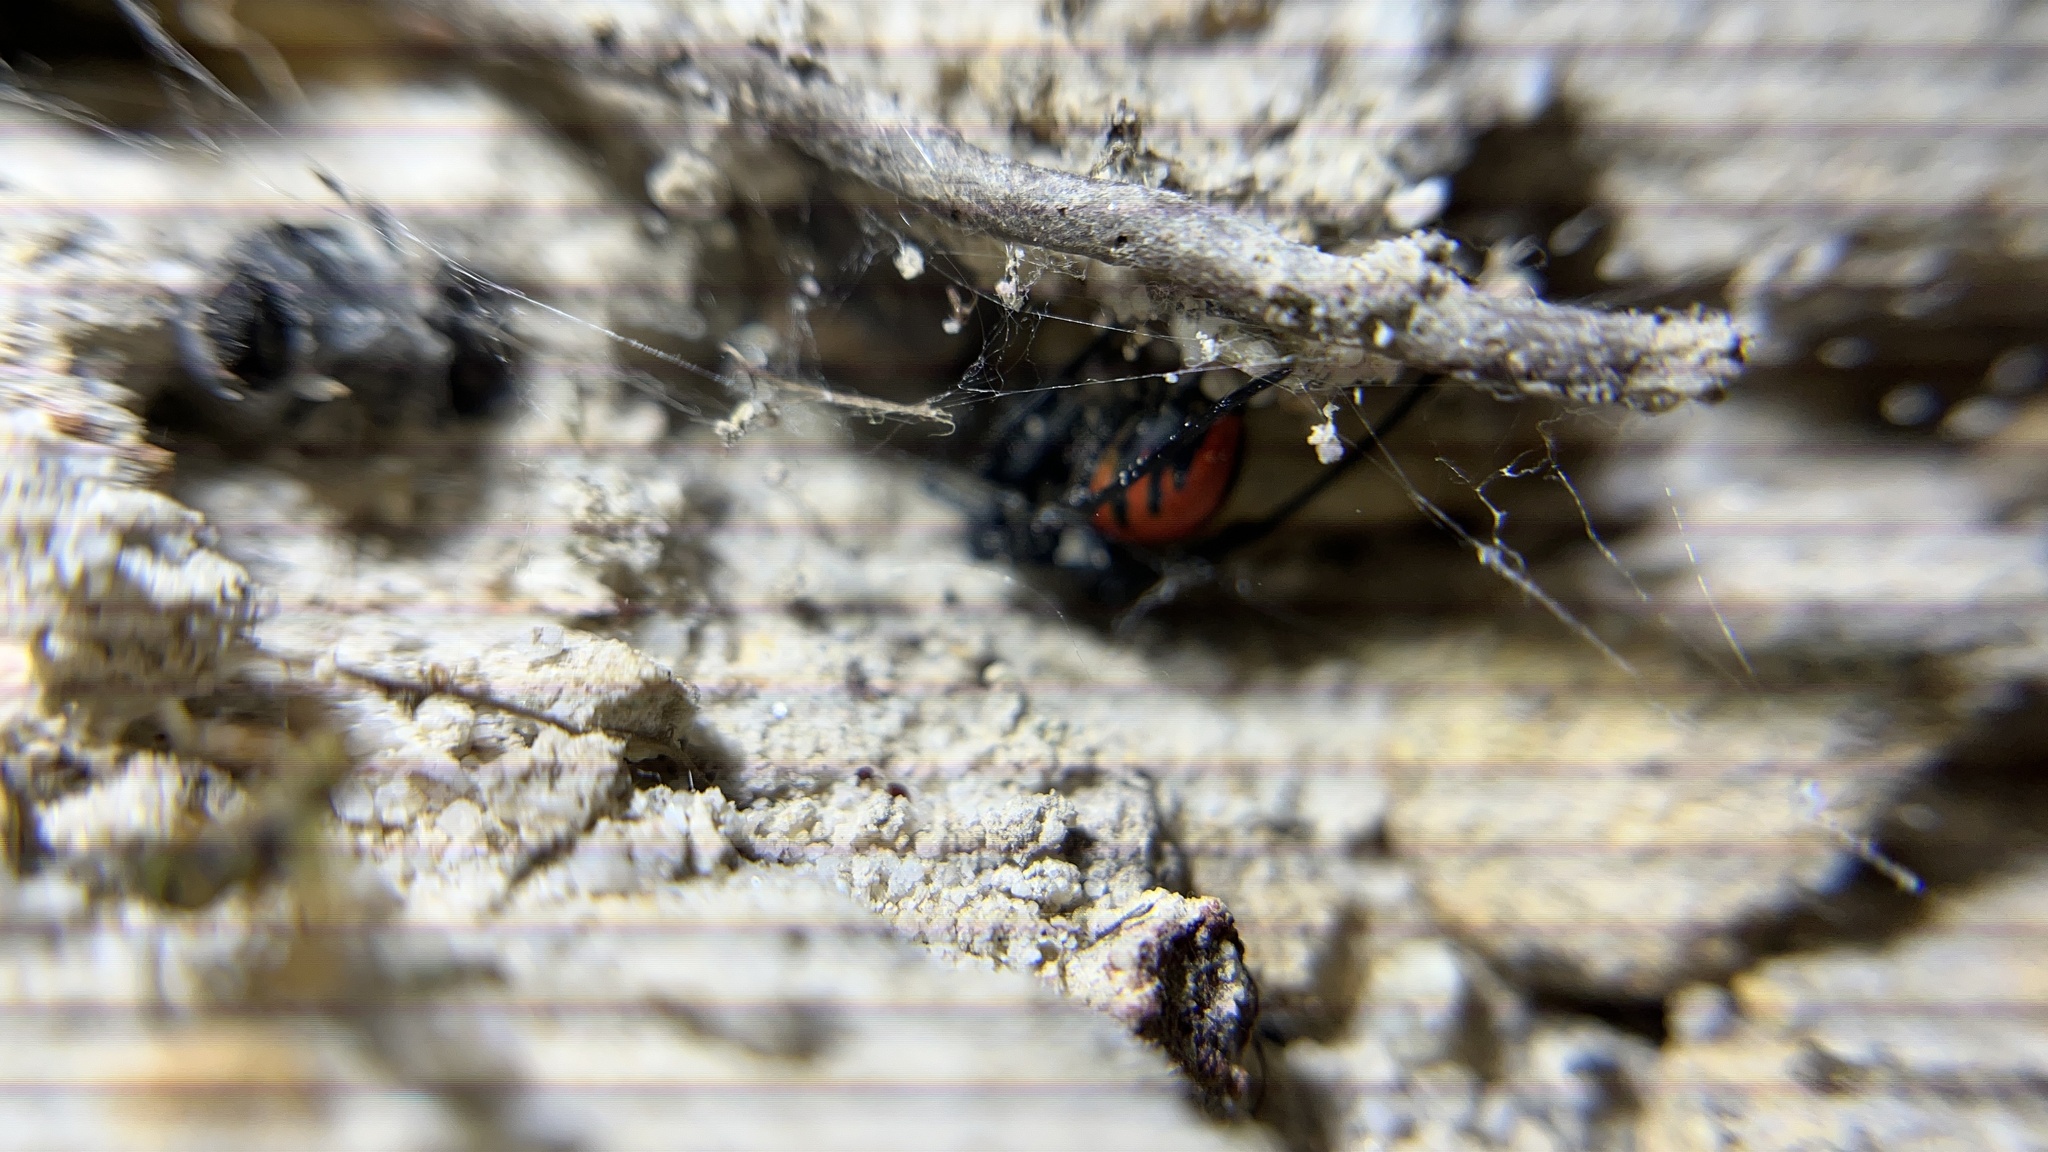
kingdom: Animalia
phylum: Arthropoda
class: Arachnida
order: Araneae
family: Theridiidae
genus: Latrodectus
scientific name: Latrodectus elegans
